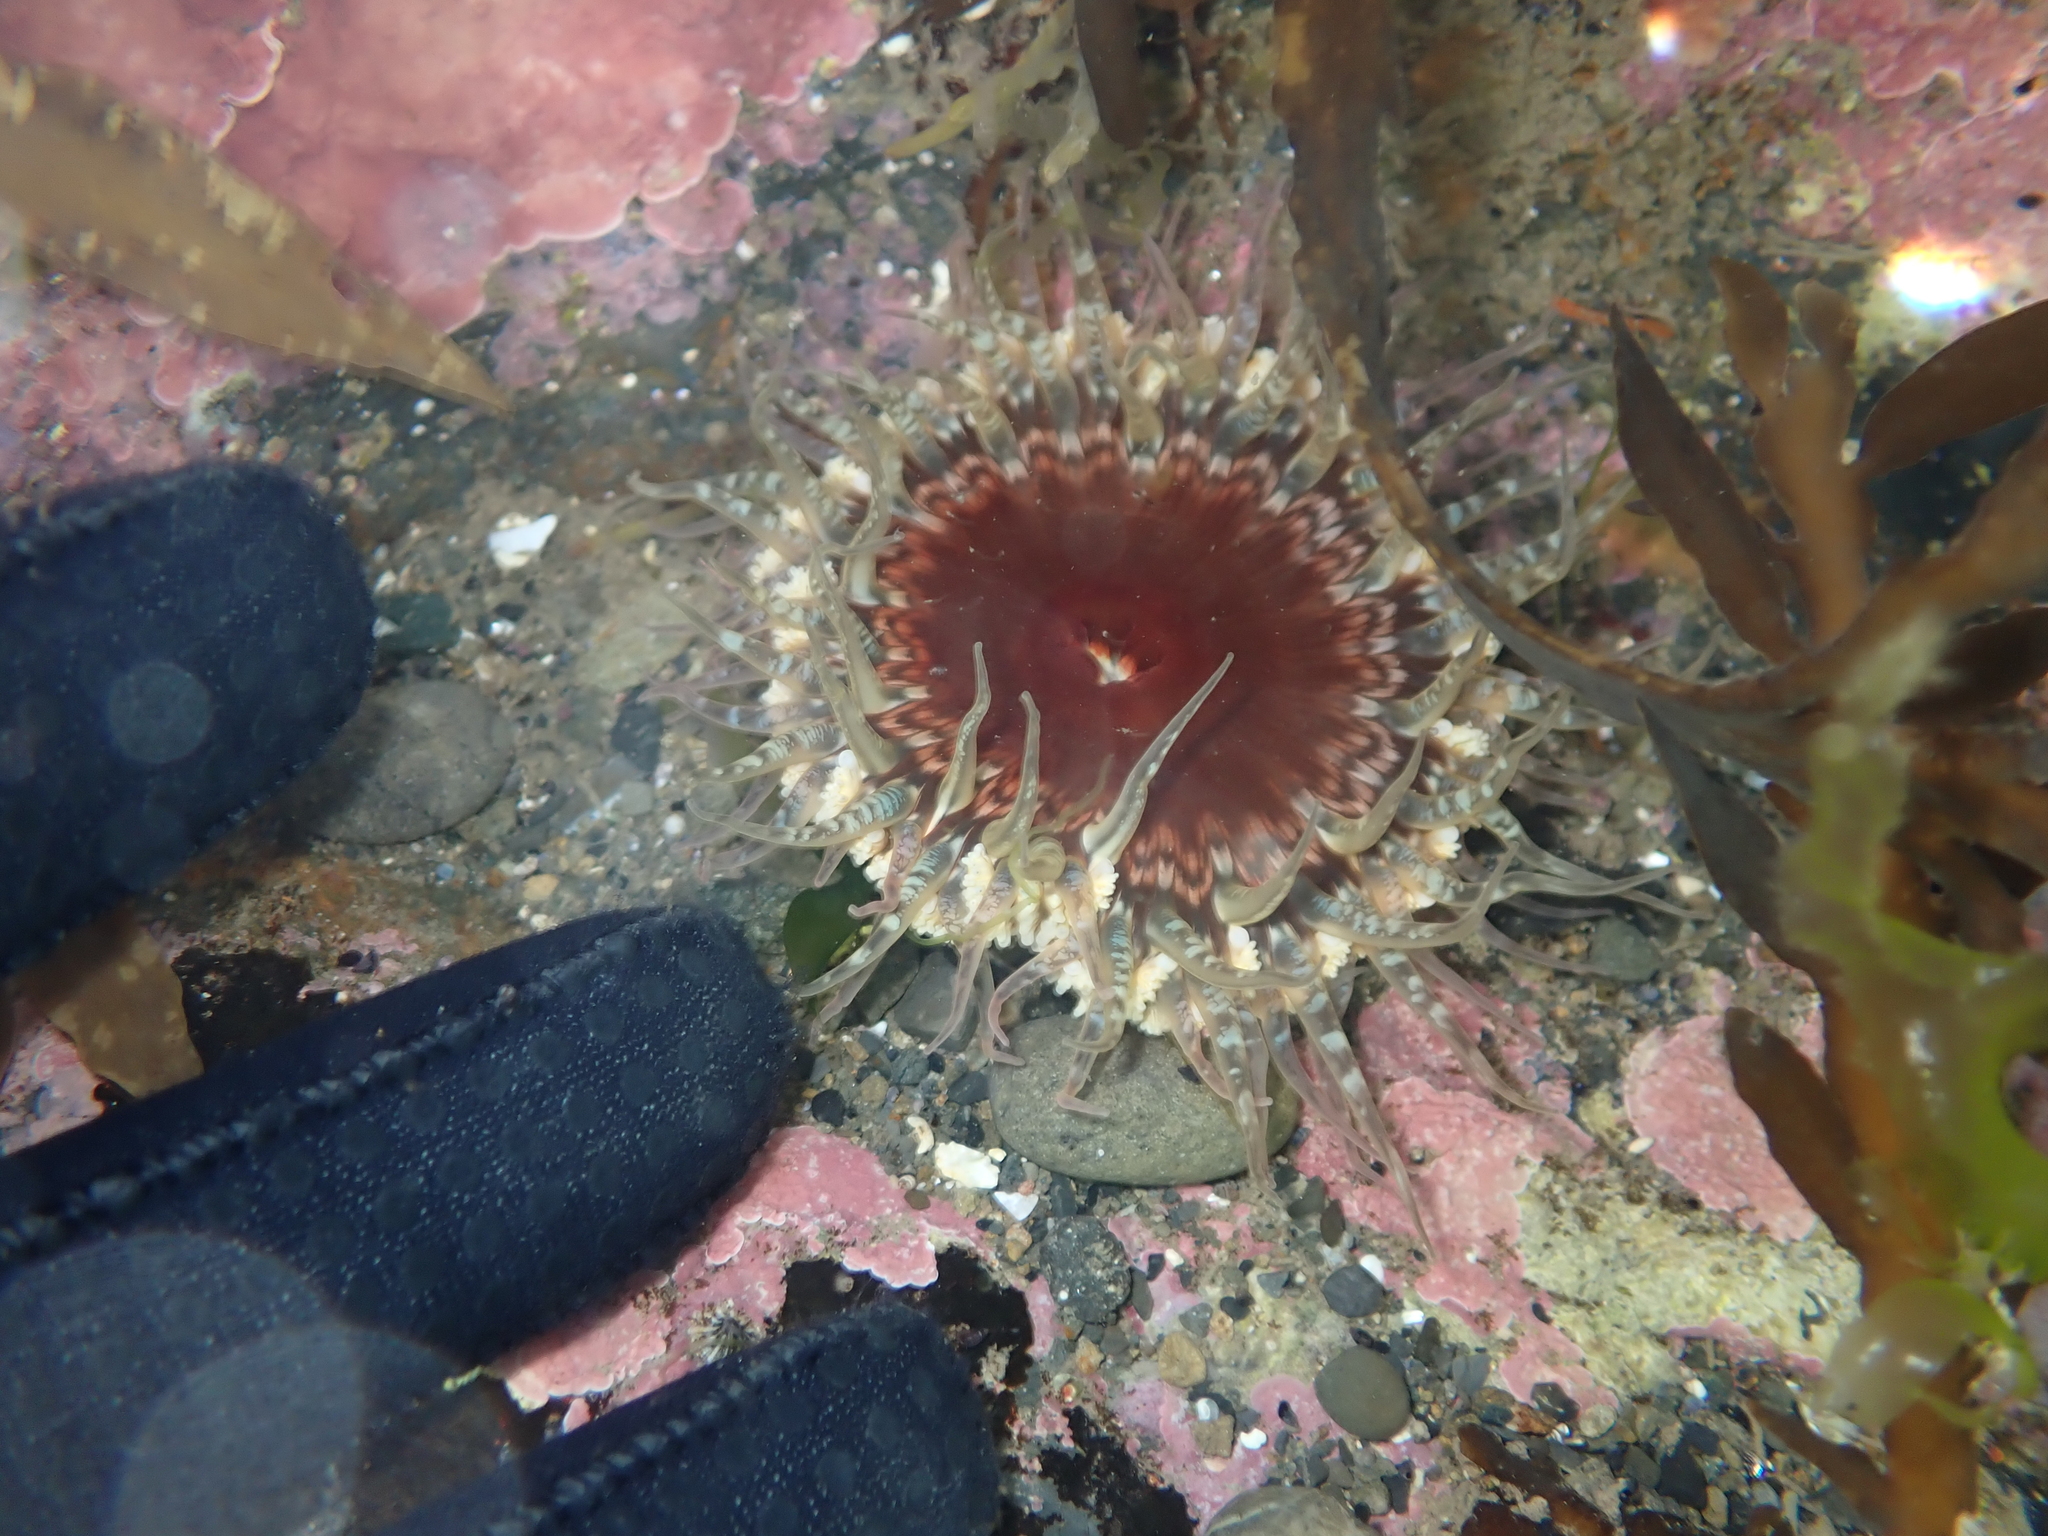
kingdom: Animalia
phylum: Cnidaria
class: Anthozoa
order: Actiniaria
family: Actiniidae
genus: Oulactis
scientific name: Oulactis muscosa
